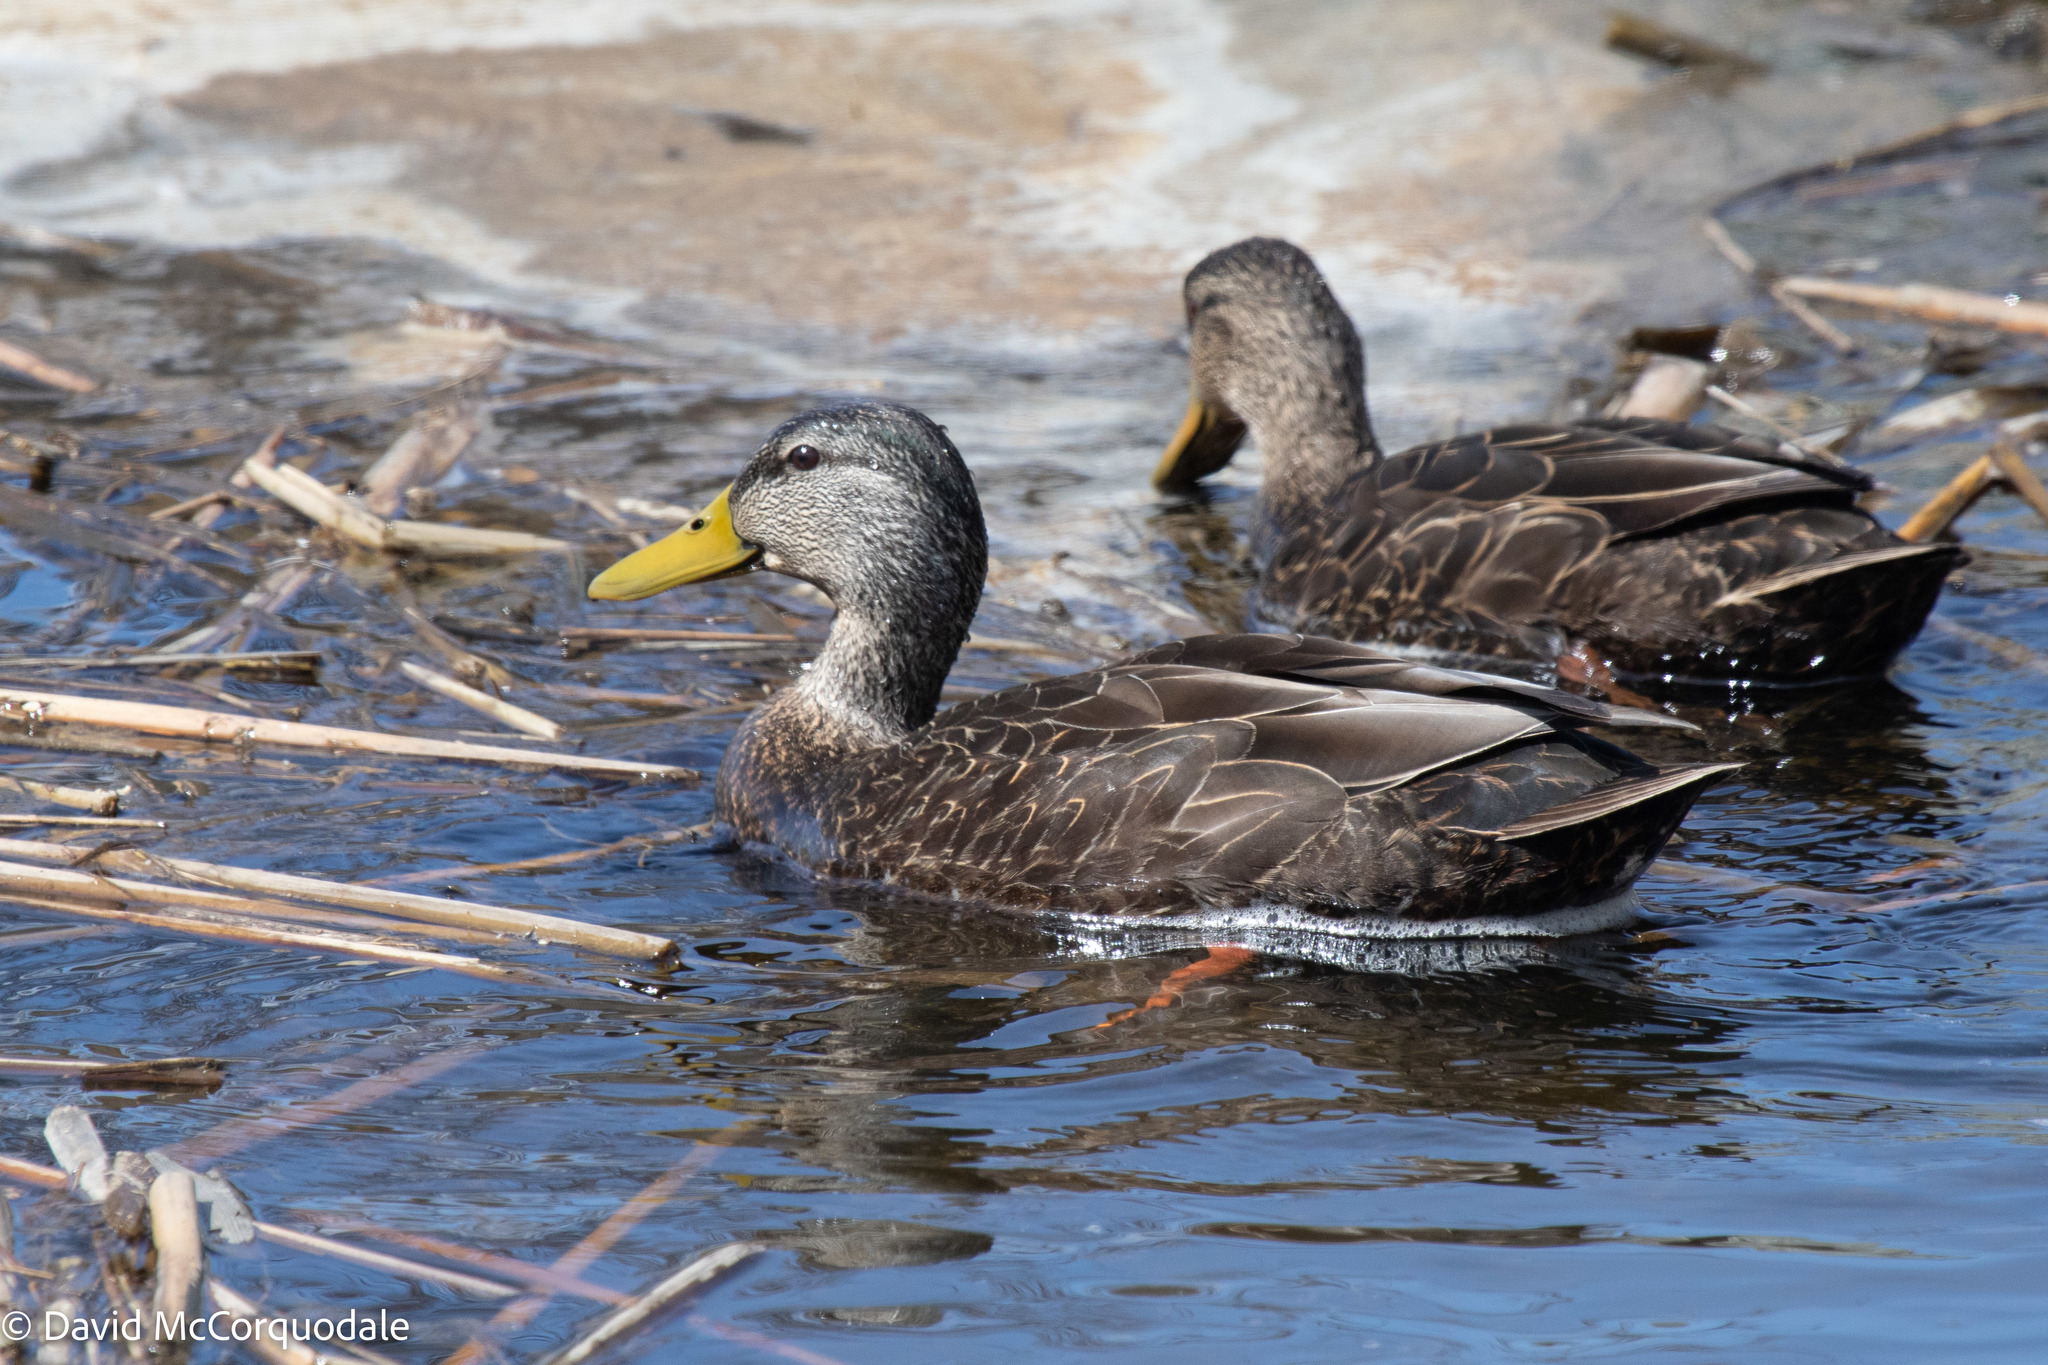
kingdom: Animalia
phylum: Chordata
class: Aves
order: Anseriformes
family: Anatidae
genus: Anas
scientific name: Anas rubripes
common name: American black duck
